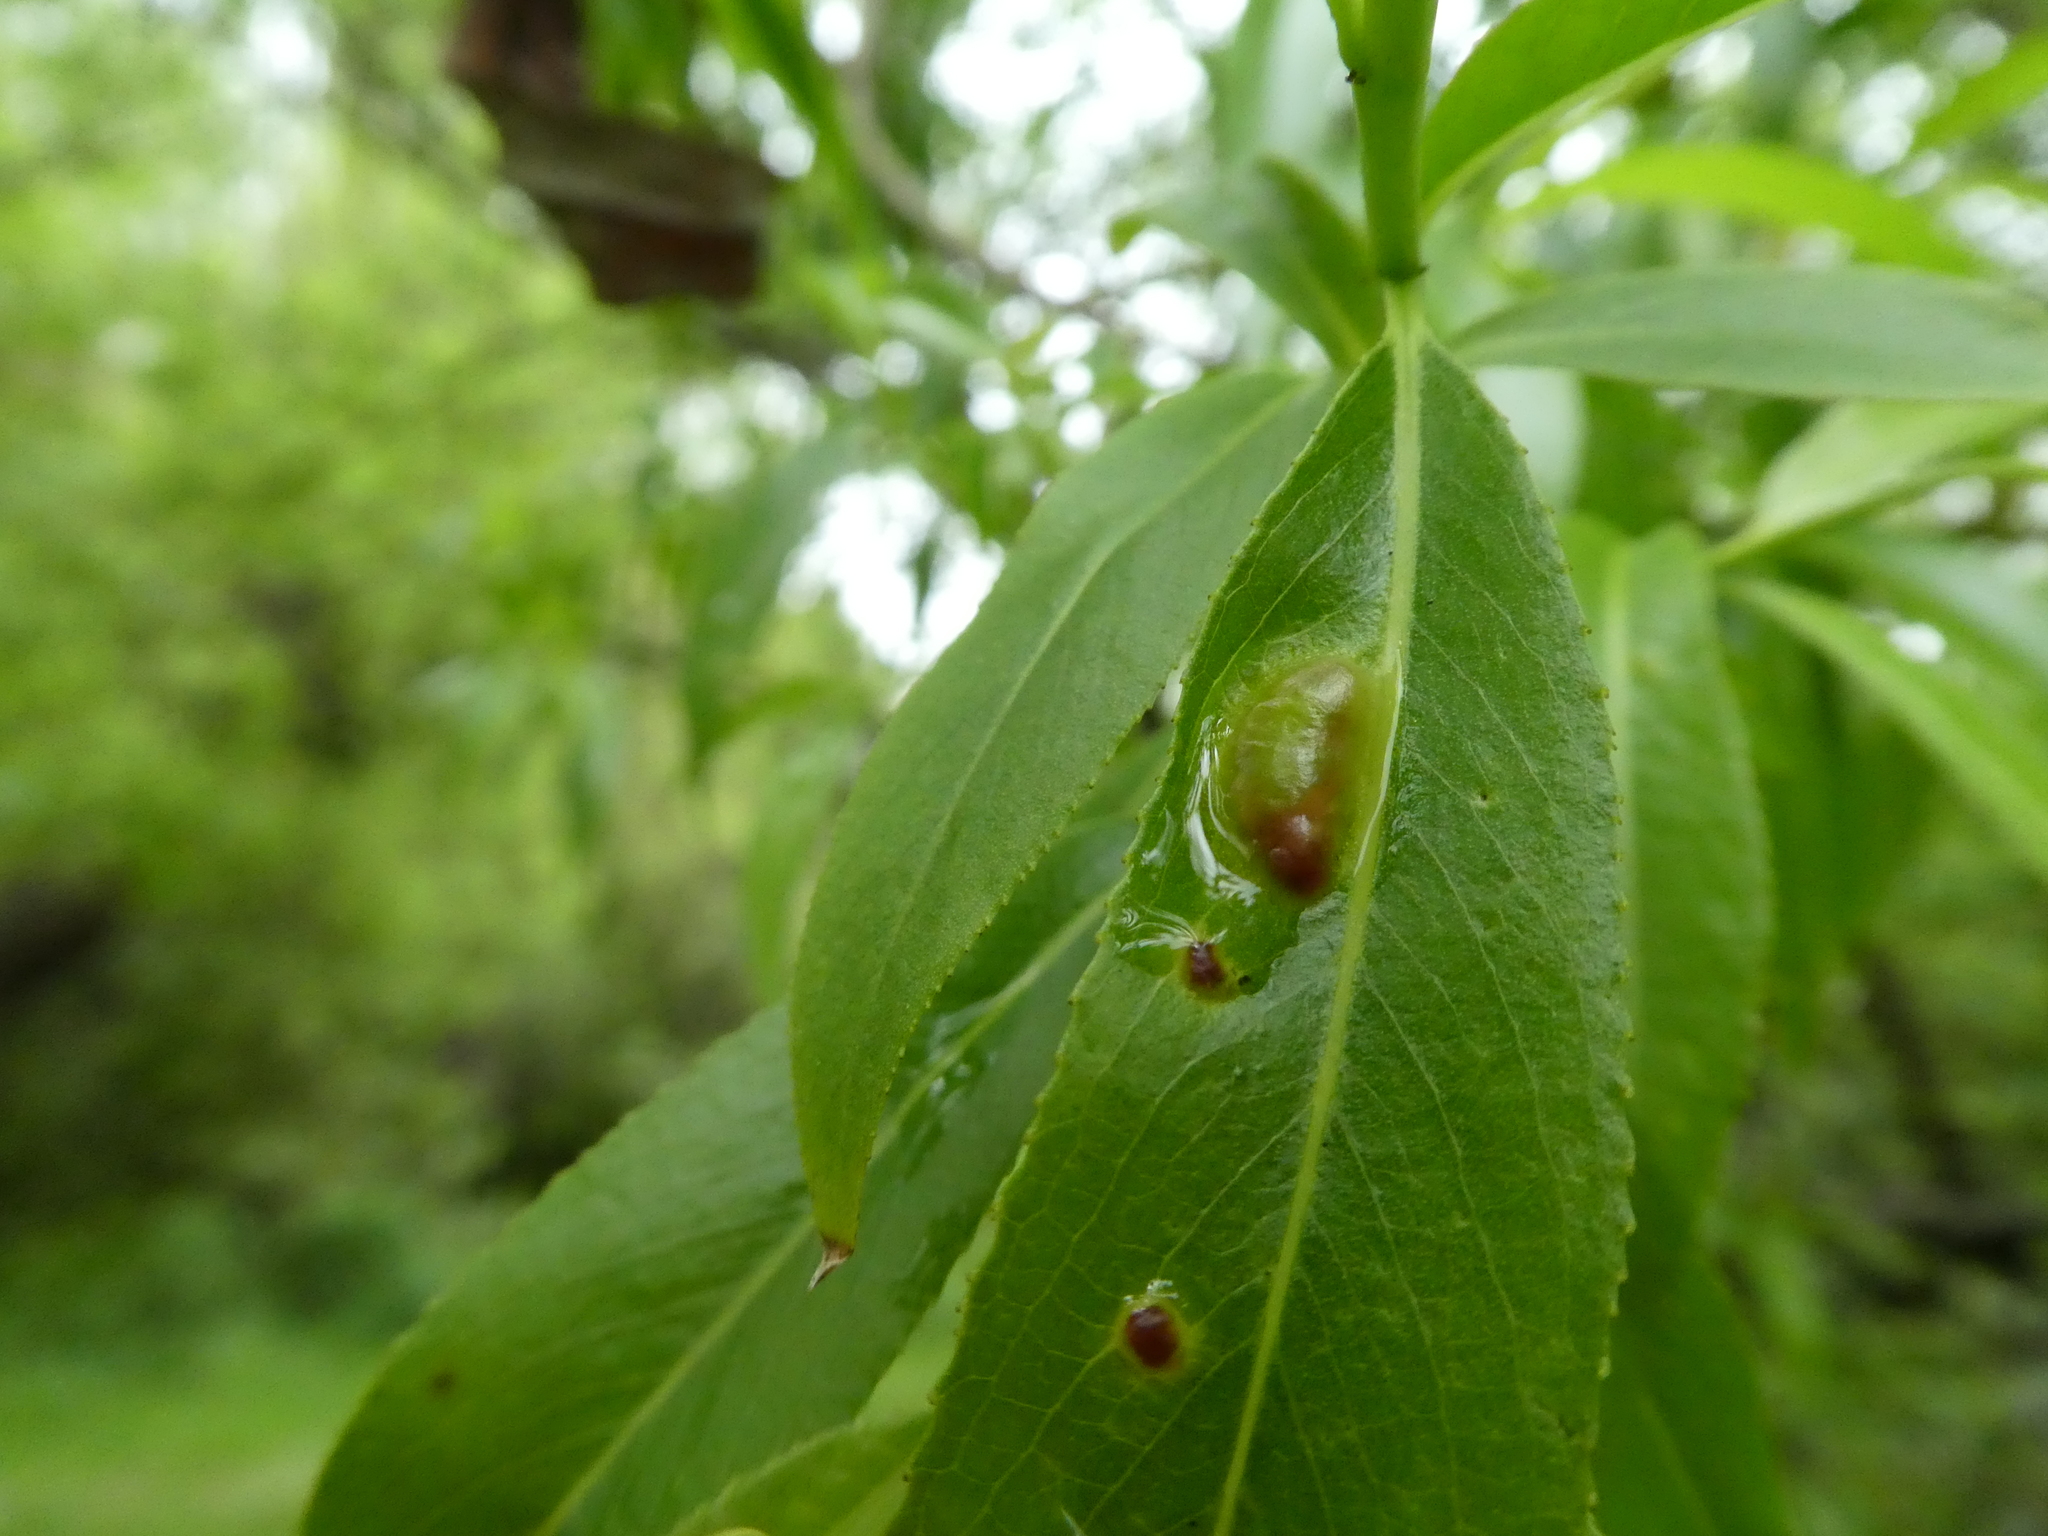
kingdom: Animalia
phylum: Arthropoda
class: Insecta
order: Hymenoptera
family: Tenthredinidae
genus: Pontania
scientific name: Pontania proxima
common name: Common sawfly
